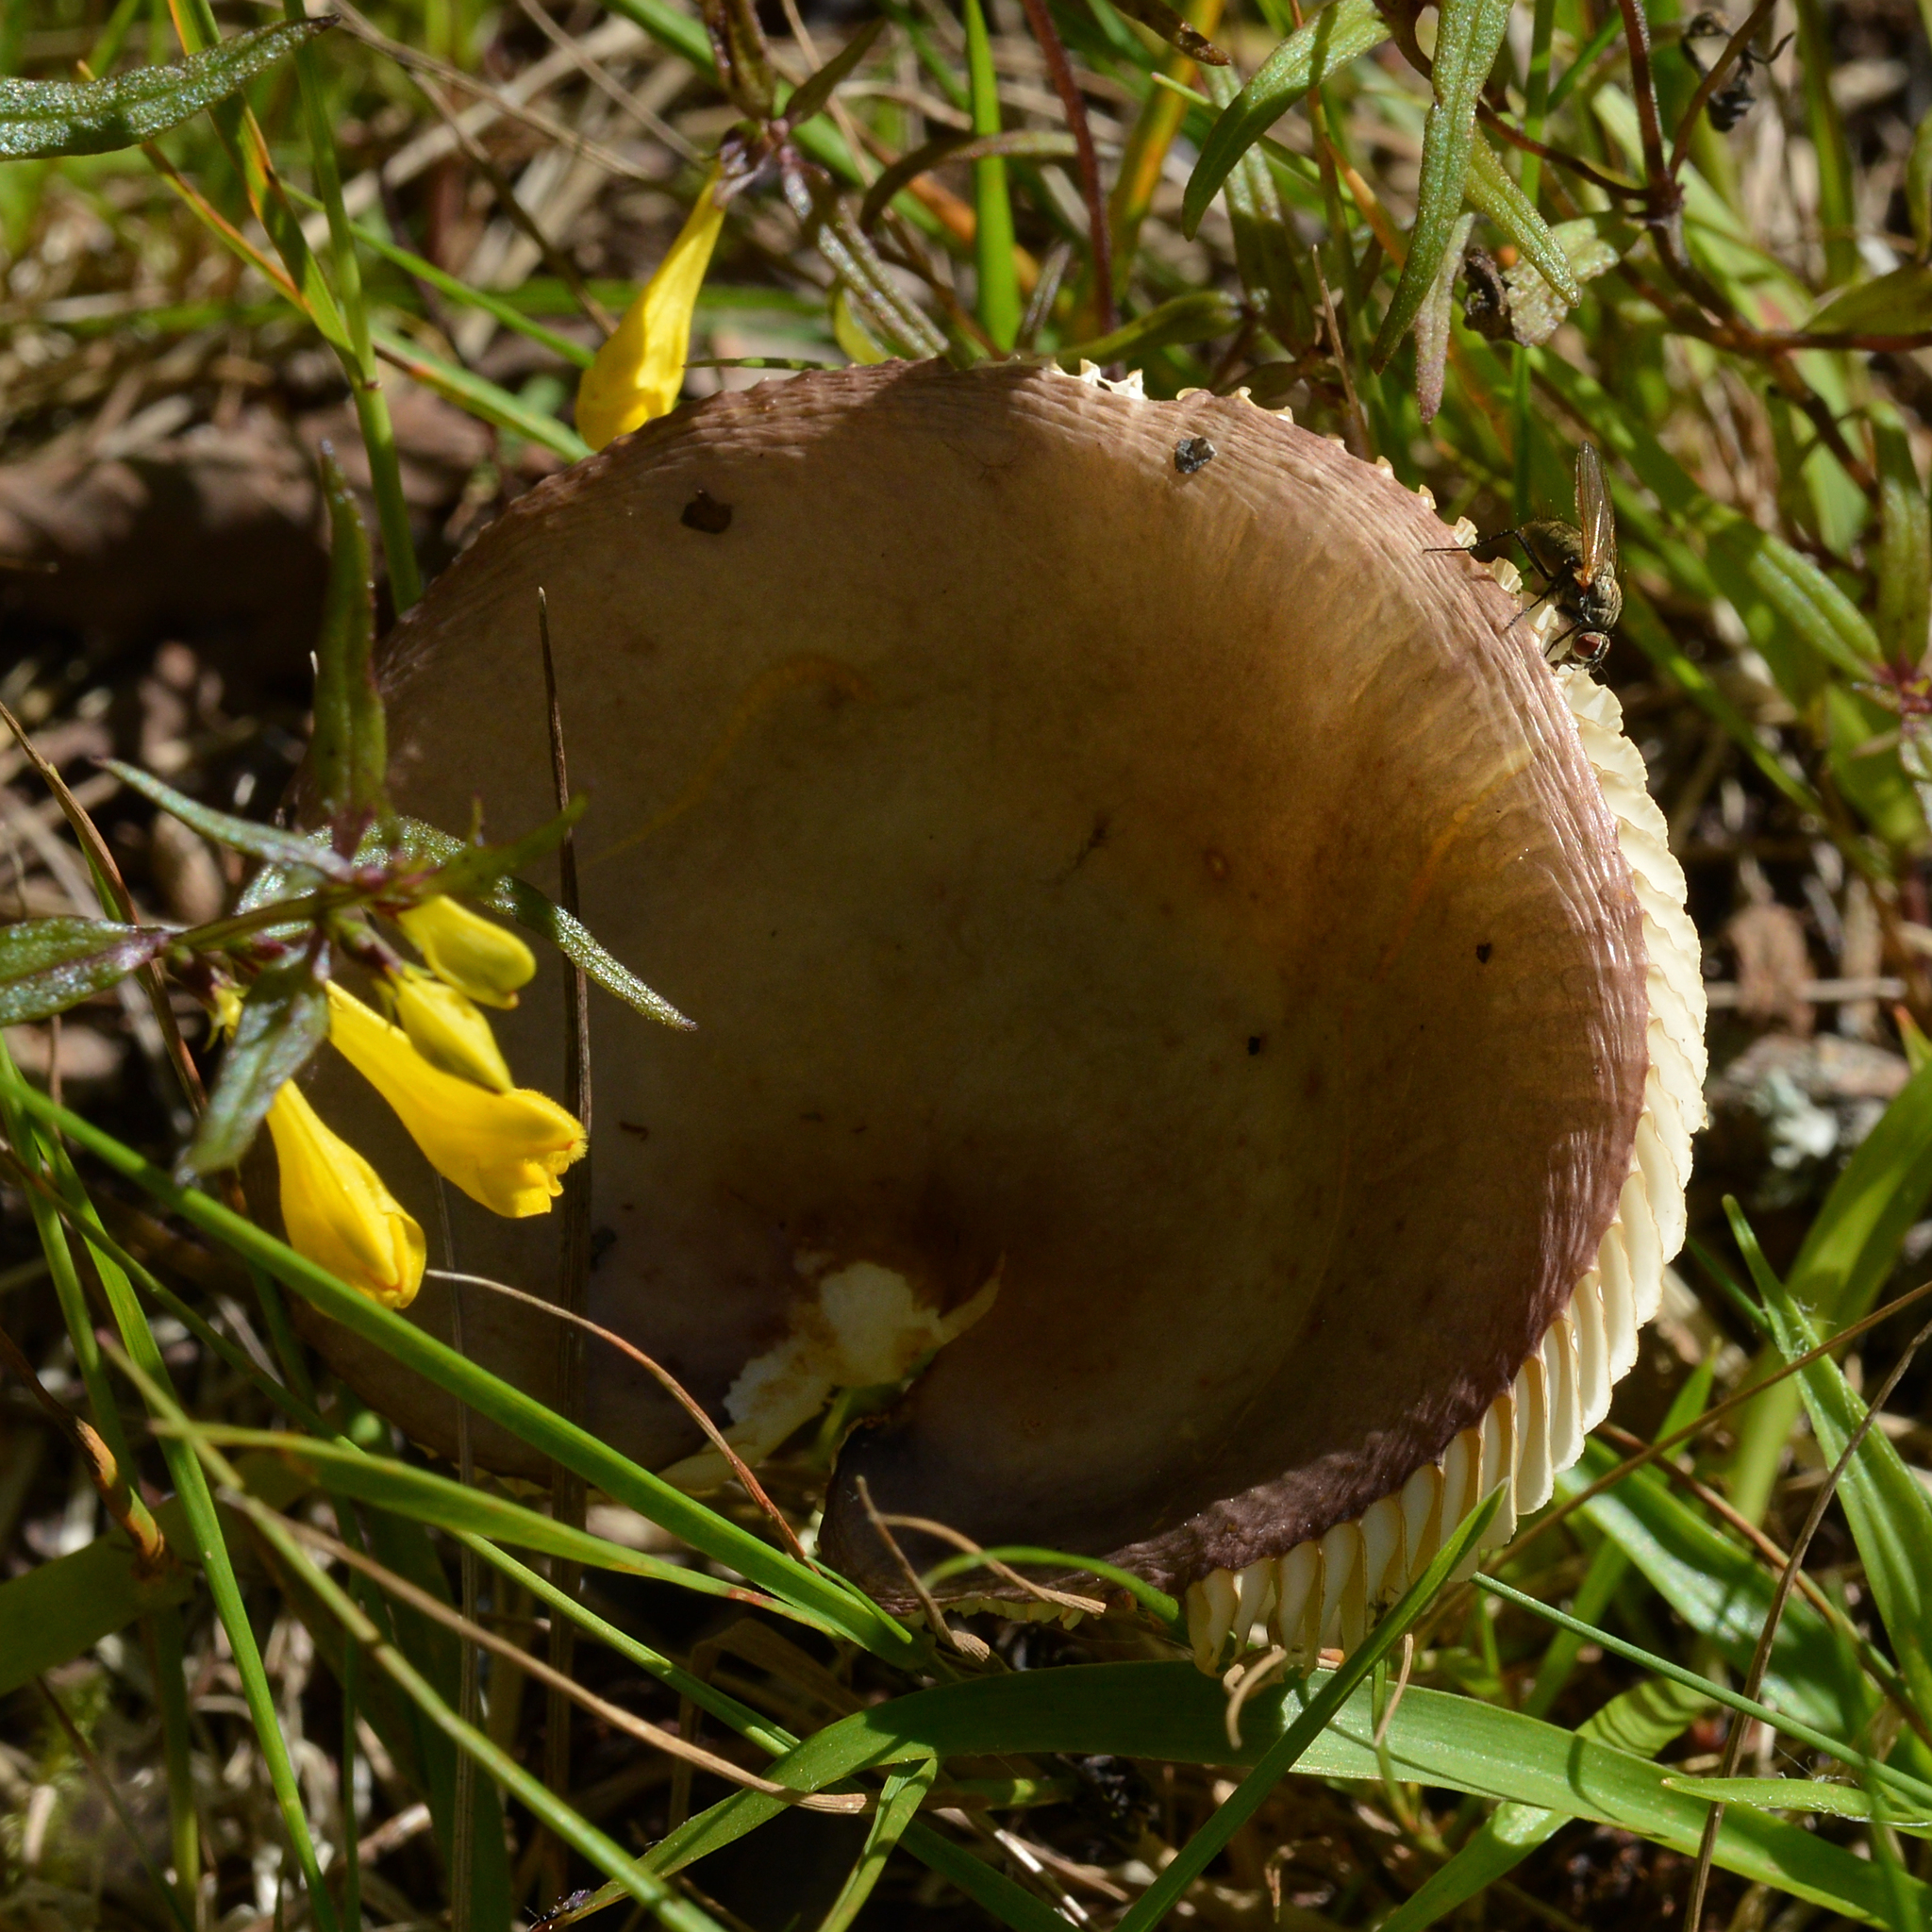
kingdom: Plantae
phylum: Tracheophyta
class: Magnoliopsida
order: Lamiales
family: Orobanchaceae
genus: Melampyrum
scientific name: Melampyrum pratense
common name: Common cow-wheat
